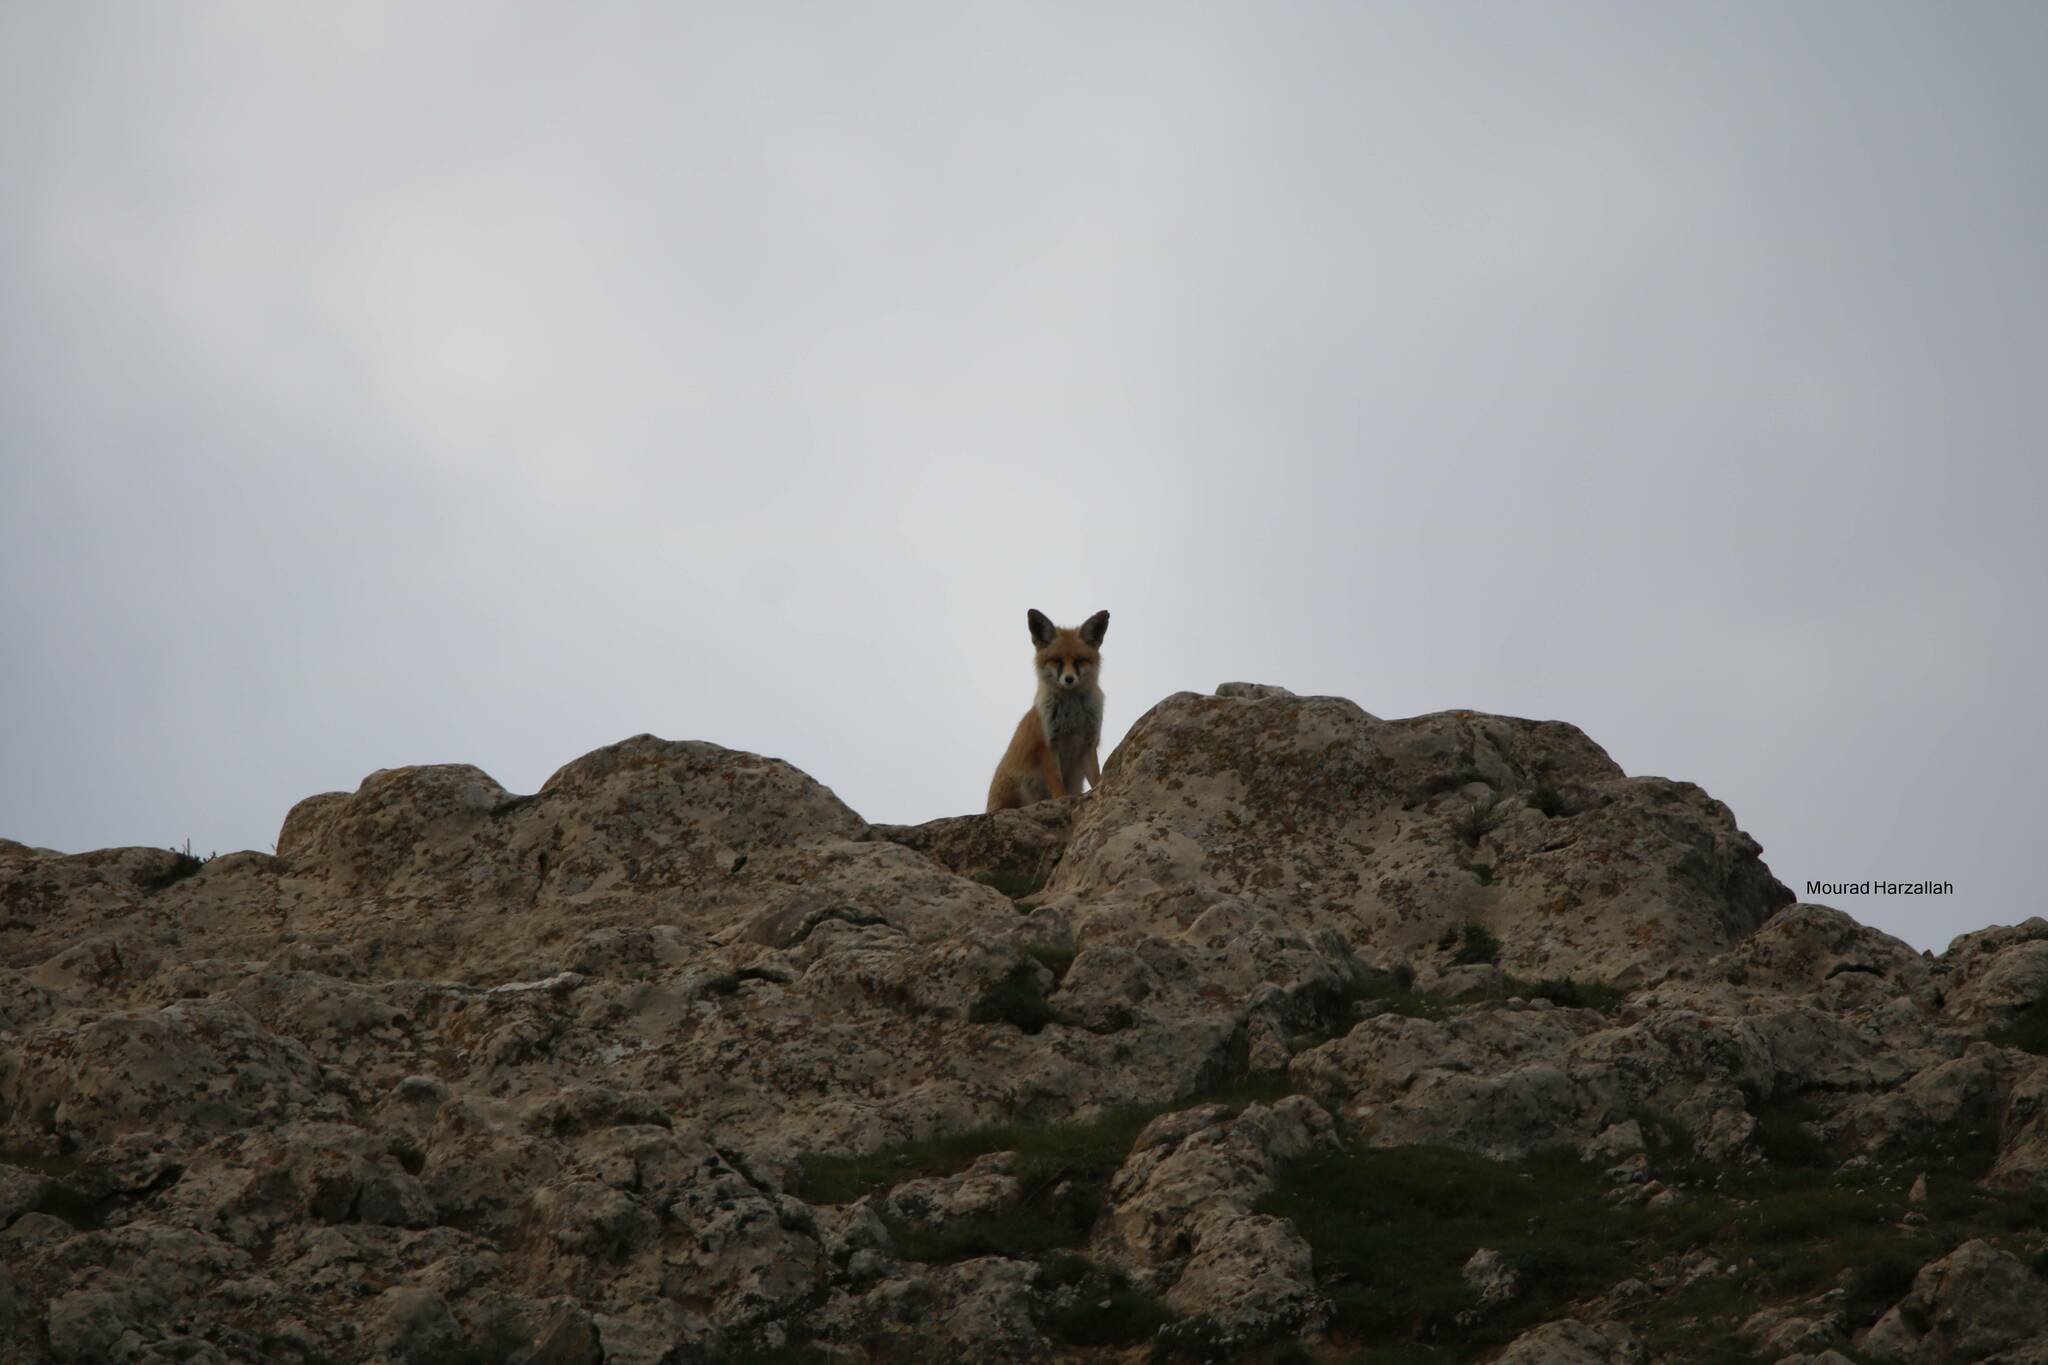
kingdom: Animalia
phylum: Chordata
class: Mammalia
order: Carnivora
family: Canidae
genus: Vulpes
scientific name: Vulpes vulpes
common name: Red fox
